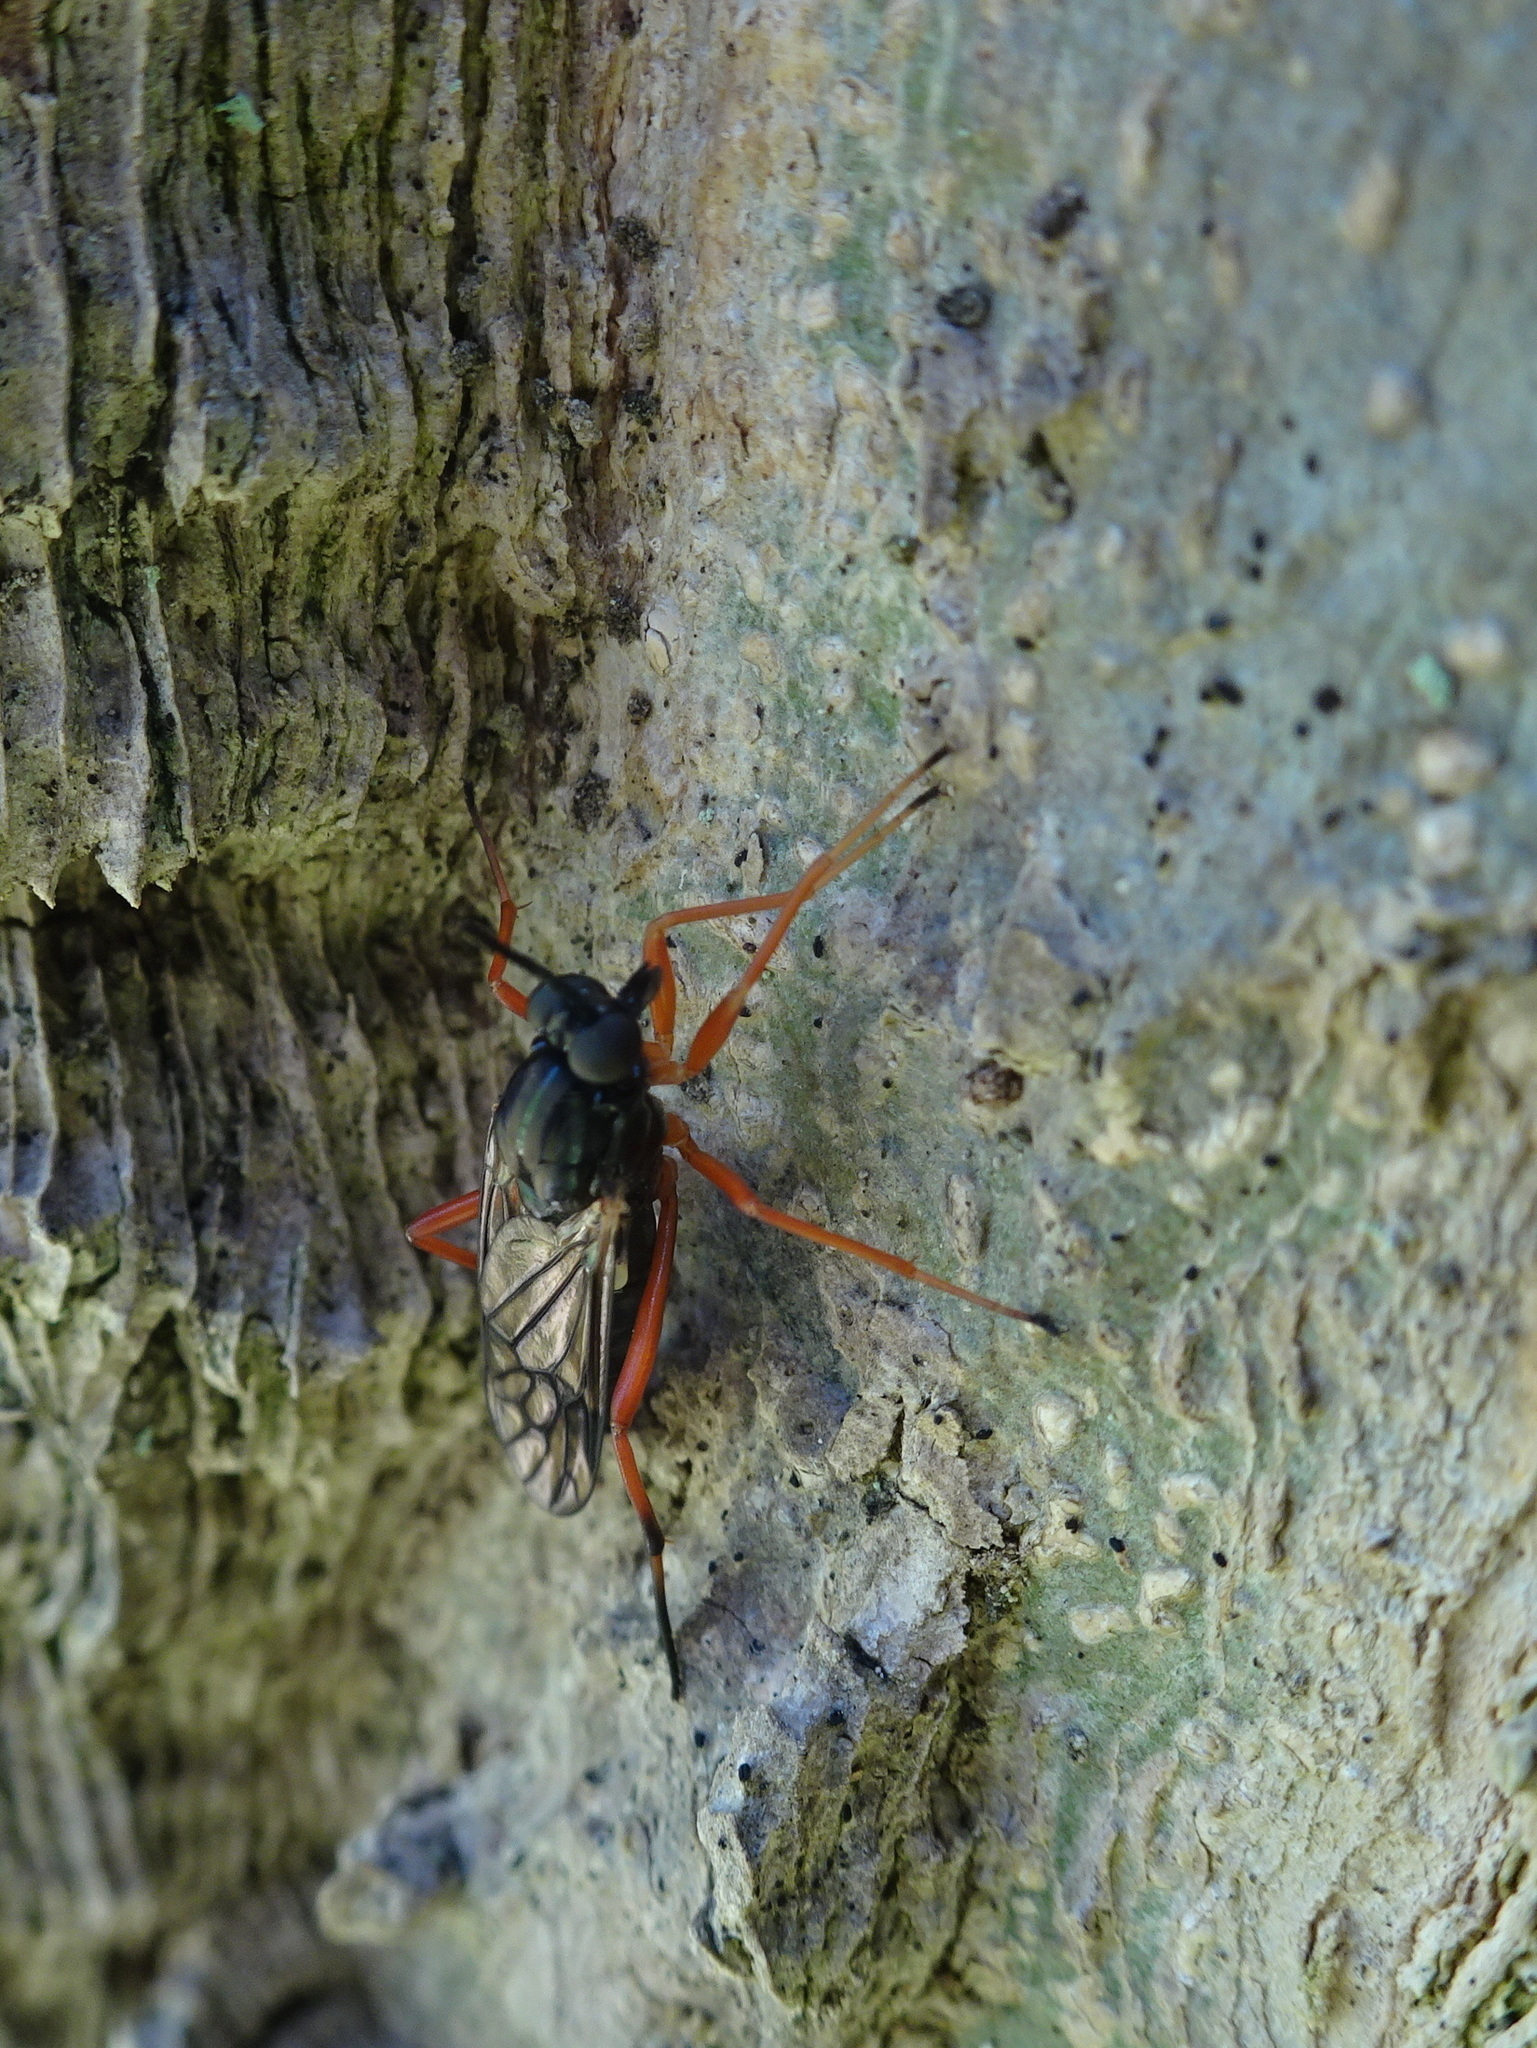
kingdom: Animalia
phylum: Arthropoda
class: Insecta
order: Diptera
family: Xylophagidae
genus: Xylophagus
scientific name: Xylophagus reflectens
